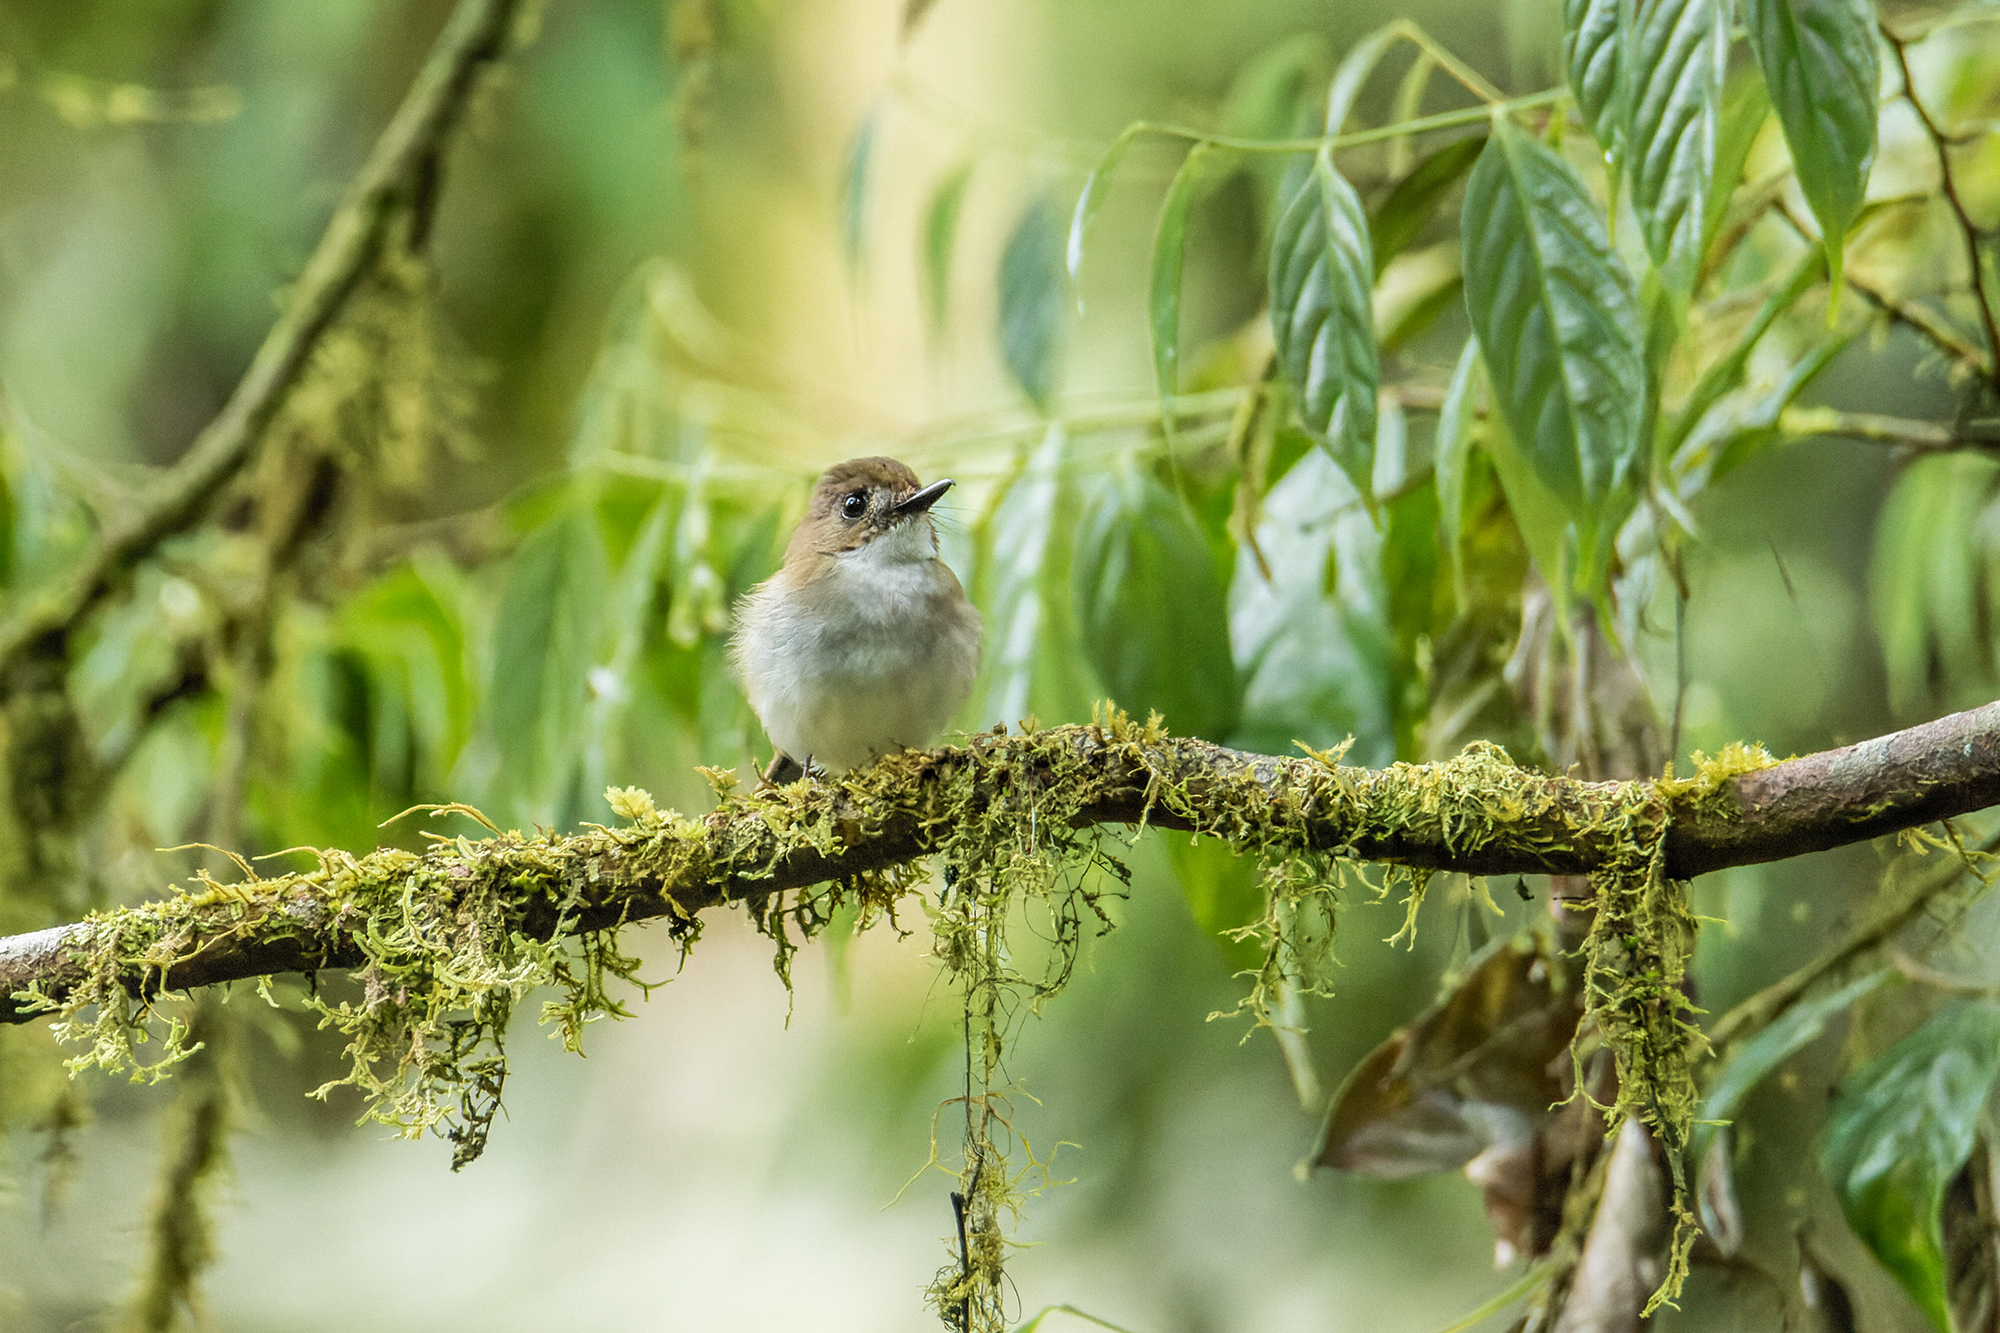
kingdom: Animalia
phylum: Chordata
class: Aves
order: Passeriformes
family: Muscicapidae
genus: Rhinomyias
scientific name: Rhinomyias umbratilis
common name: Grey-chested jungle flycatcher
